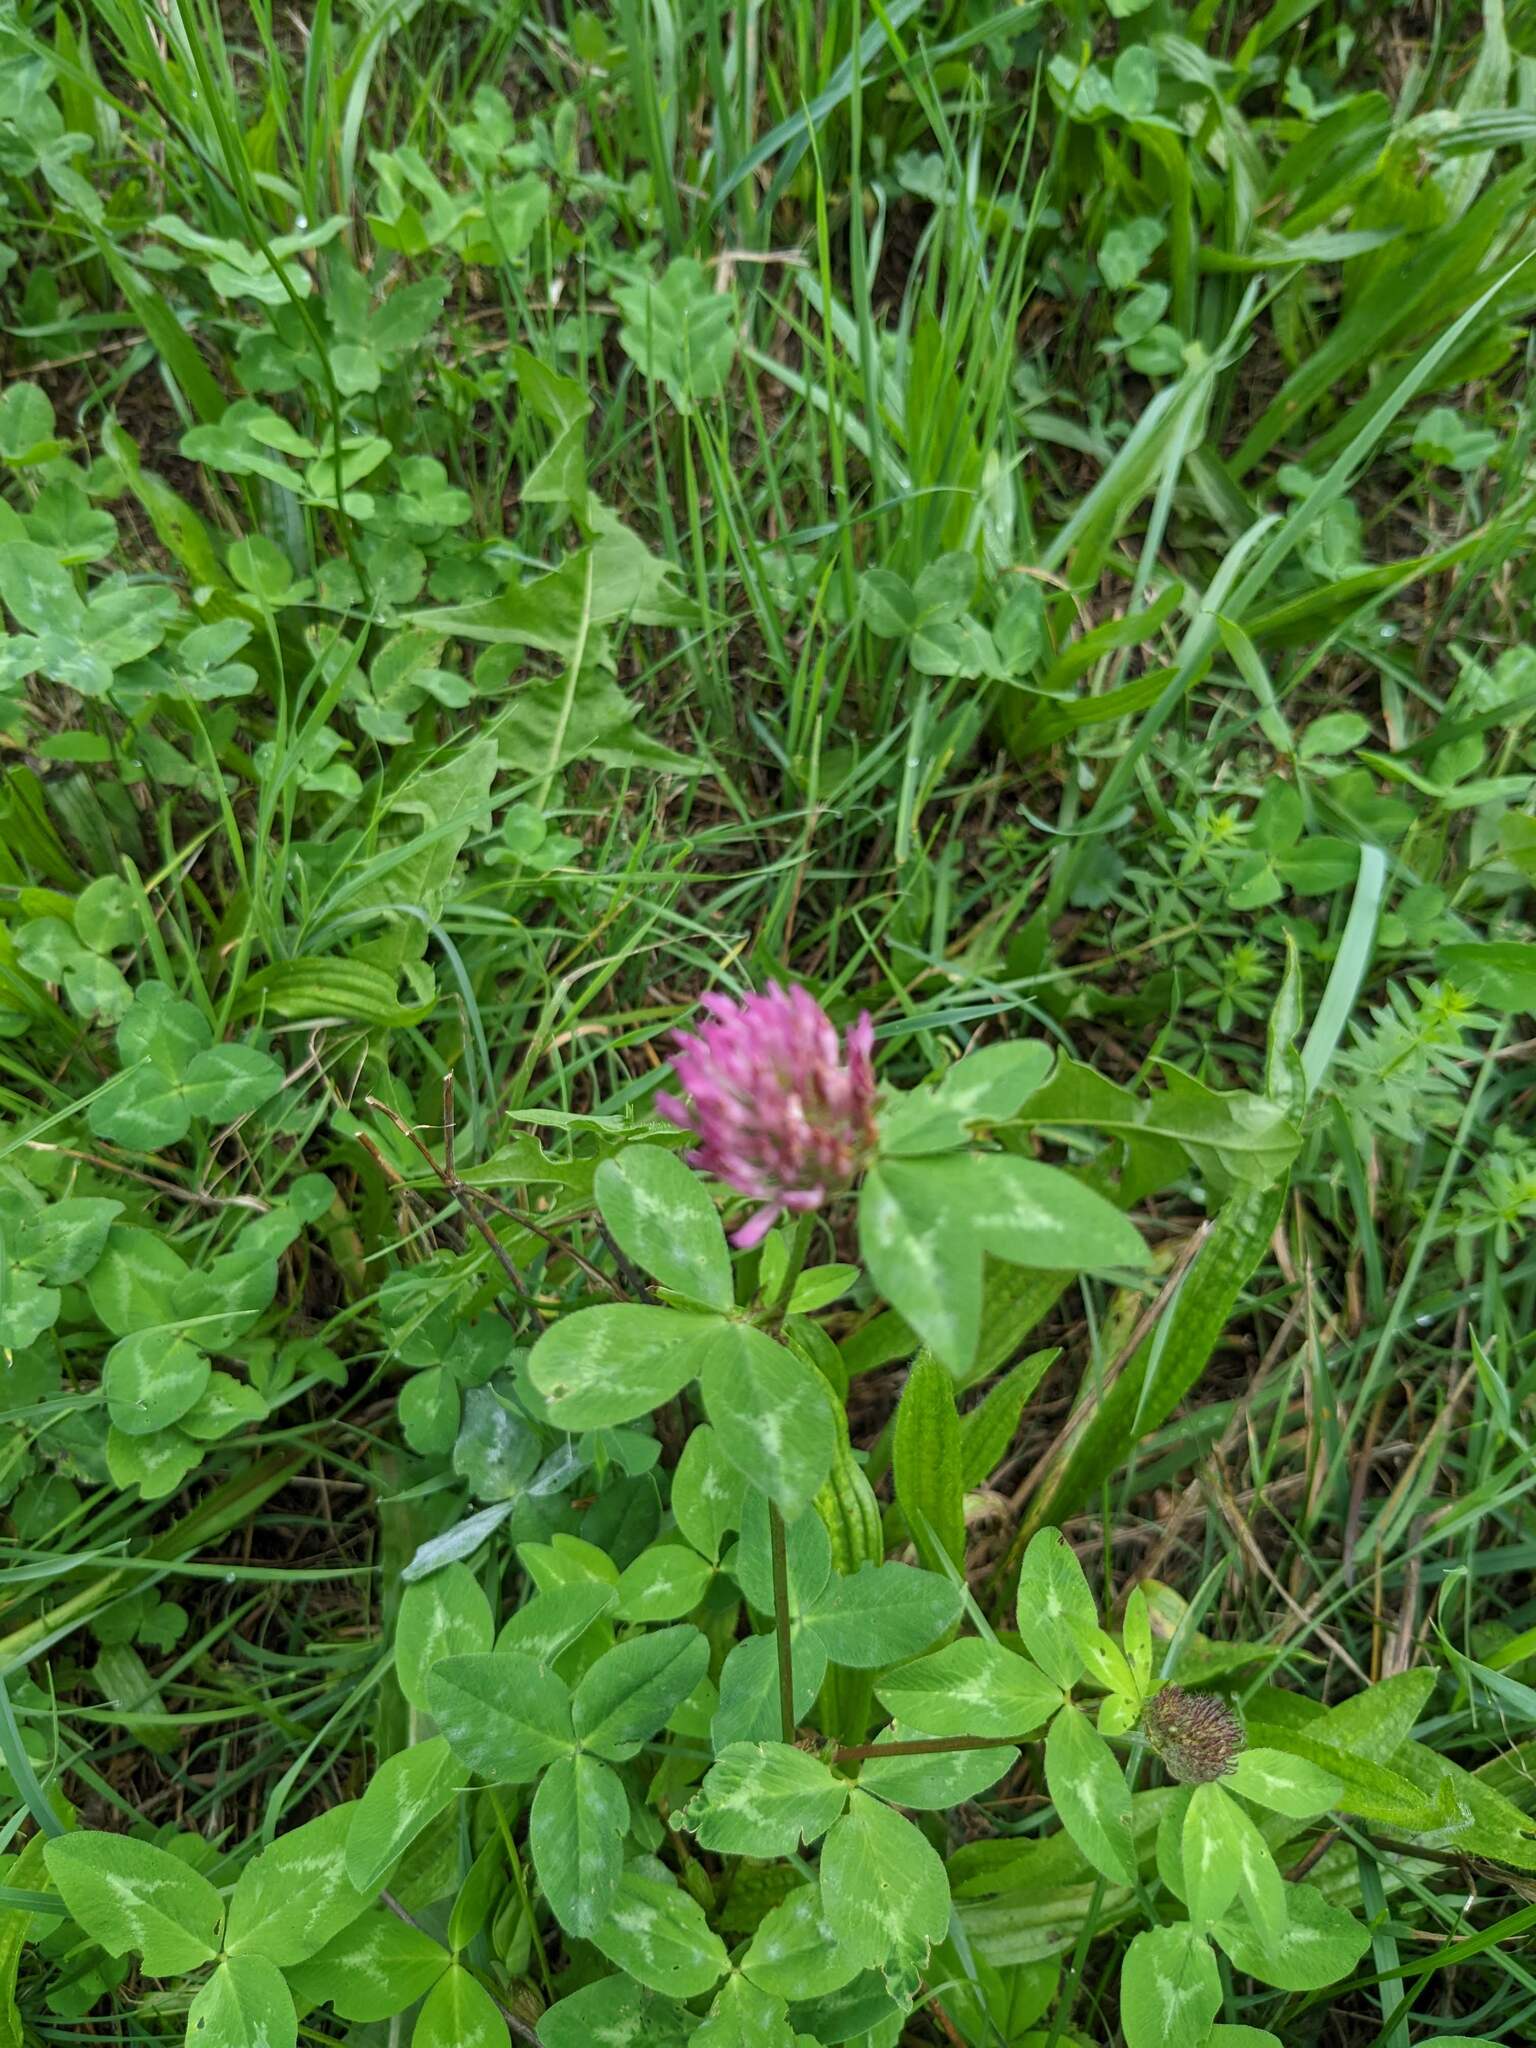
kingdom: Plantae
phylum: Tracheophyta
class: Magnoliopsida
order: Fabales
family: Fabaceae
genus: Trifolium
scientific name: Trifolium pratense
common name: Red clover
